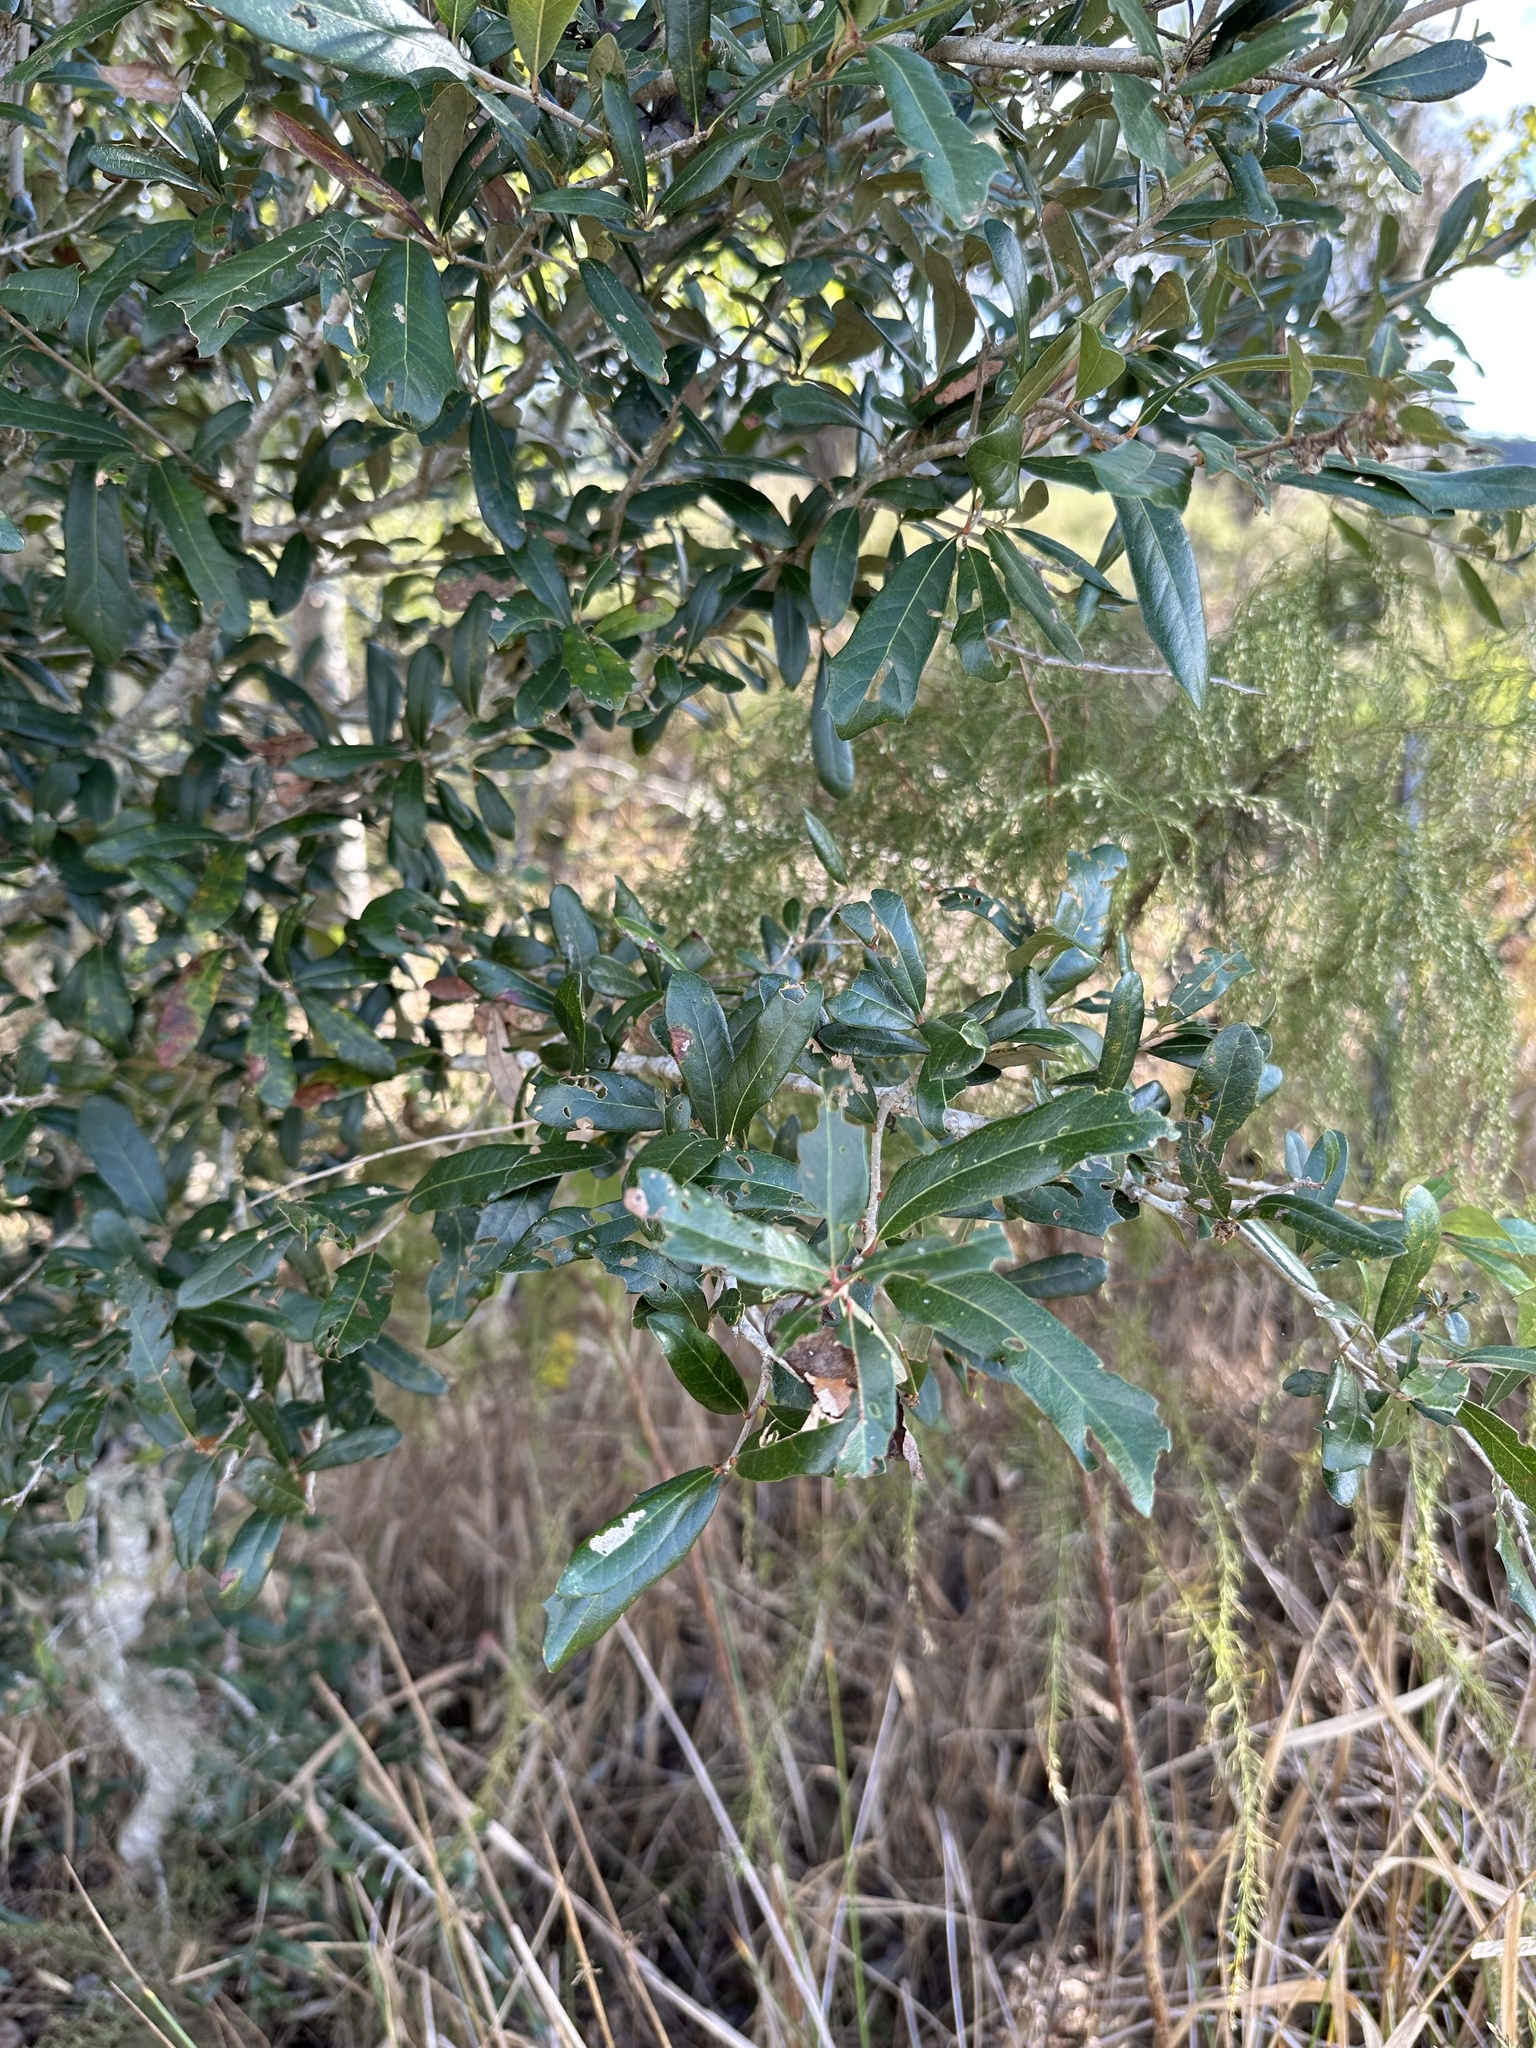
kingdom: Plantae
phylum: Tracheophyta
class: Magnoliopsida
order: Fagales
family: Fagaceae
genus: Quercus
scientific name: Quercus virginiana
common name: Southern live oak
